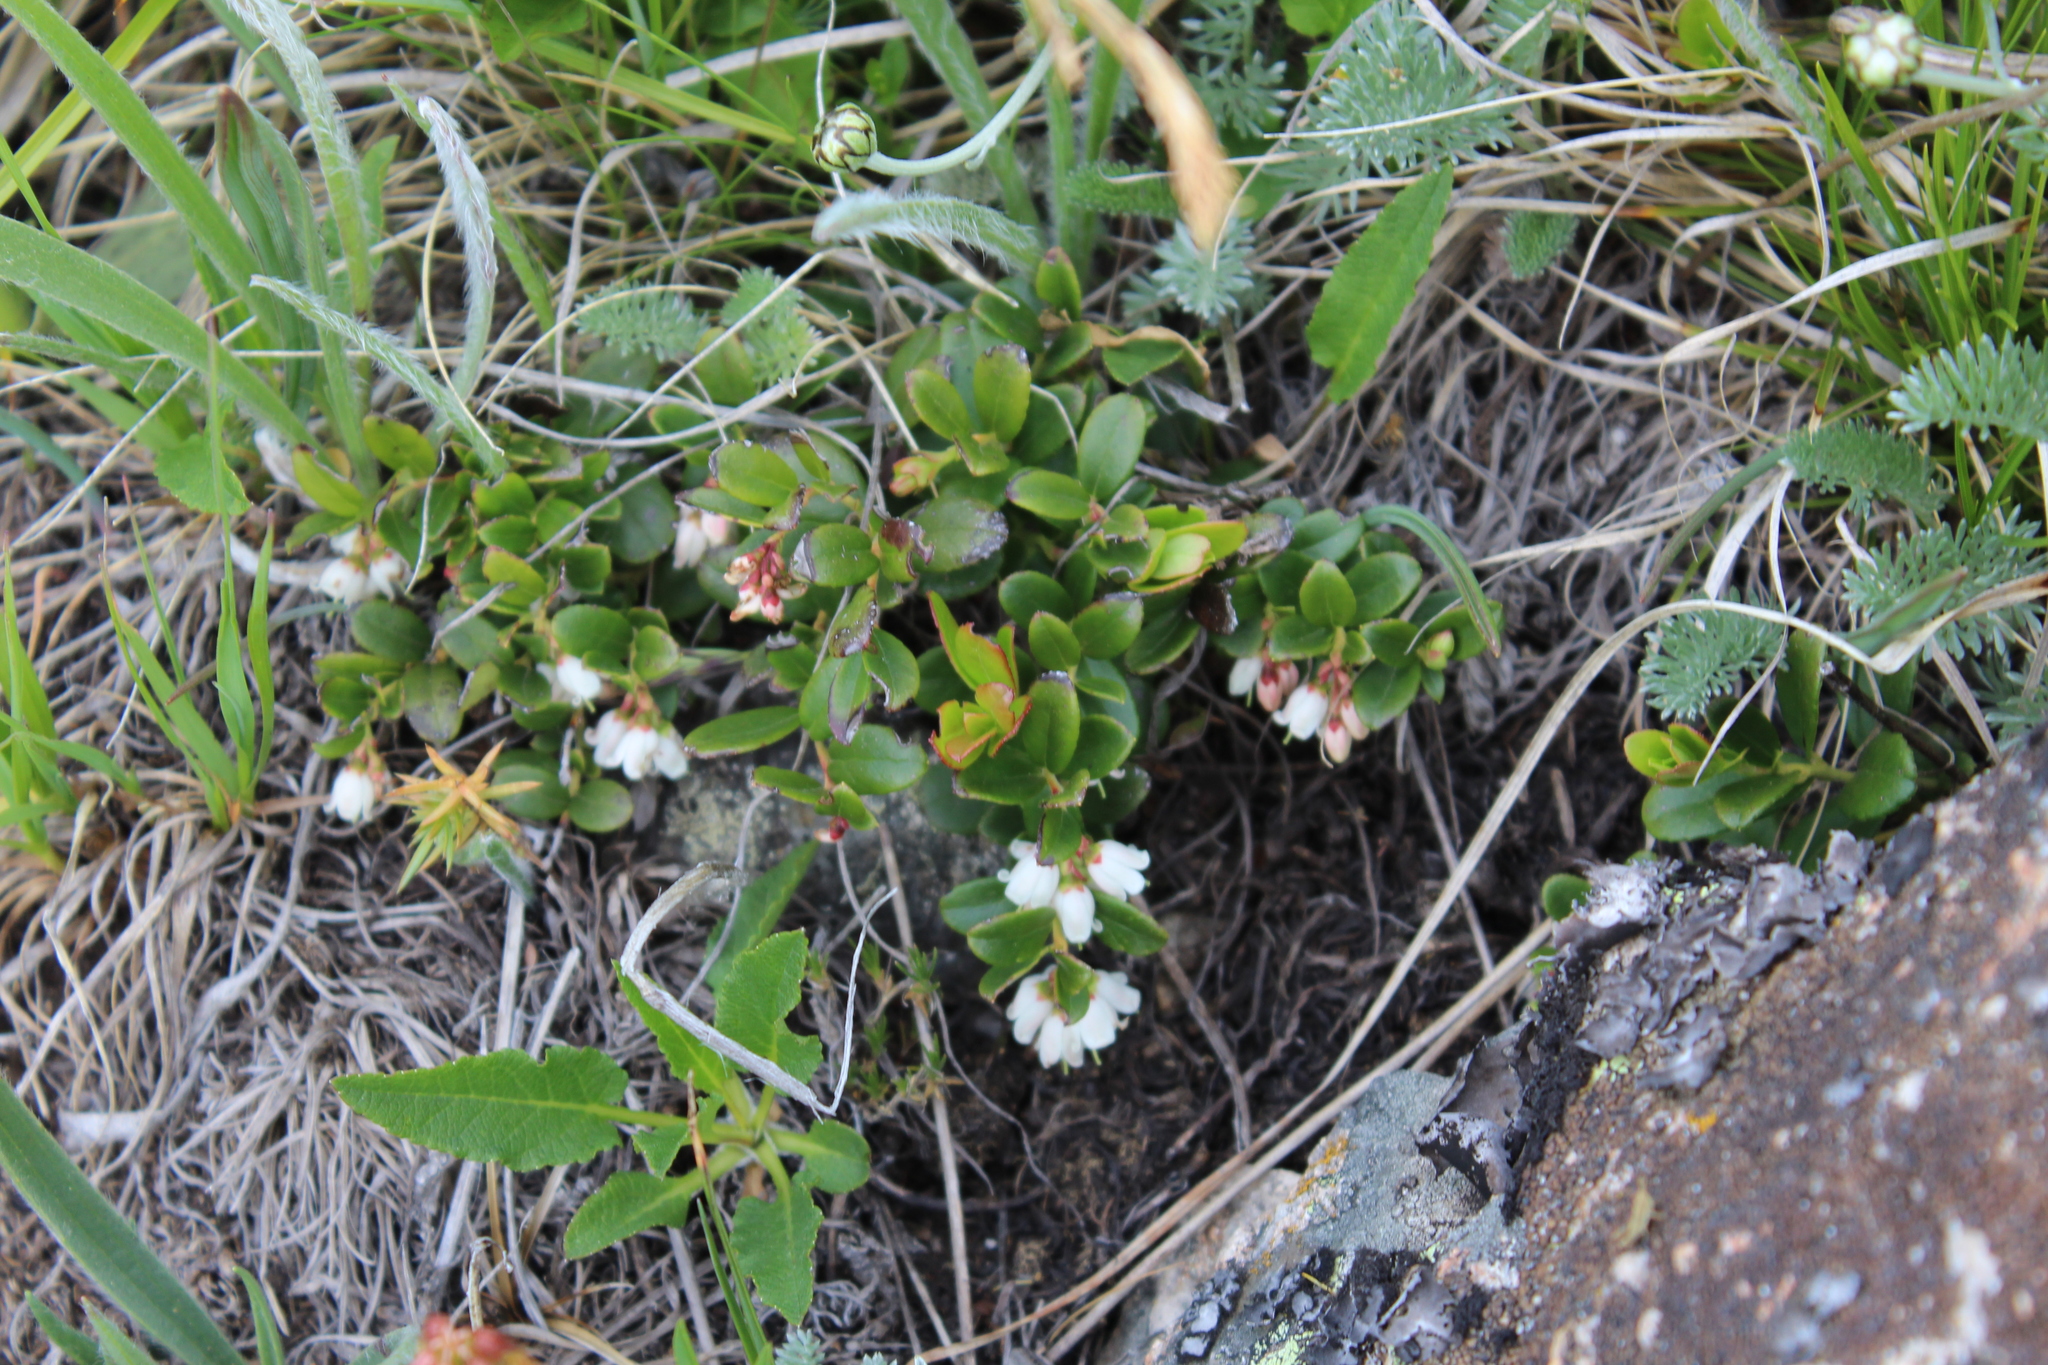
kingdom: Plantae
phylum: Tracheophyta
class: Magnoliopsida
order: Ericales
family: Ericaceae
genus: Vaccinium
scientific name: Vaccinium vitis-idaea
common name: Cowberry
